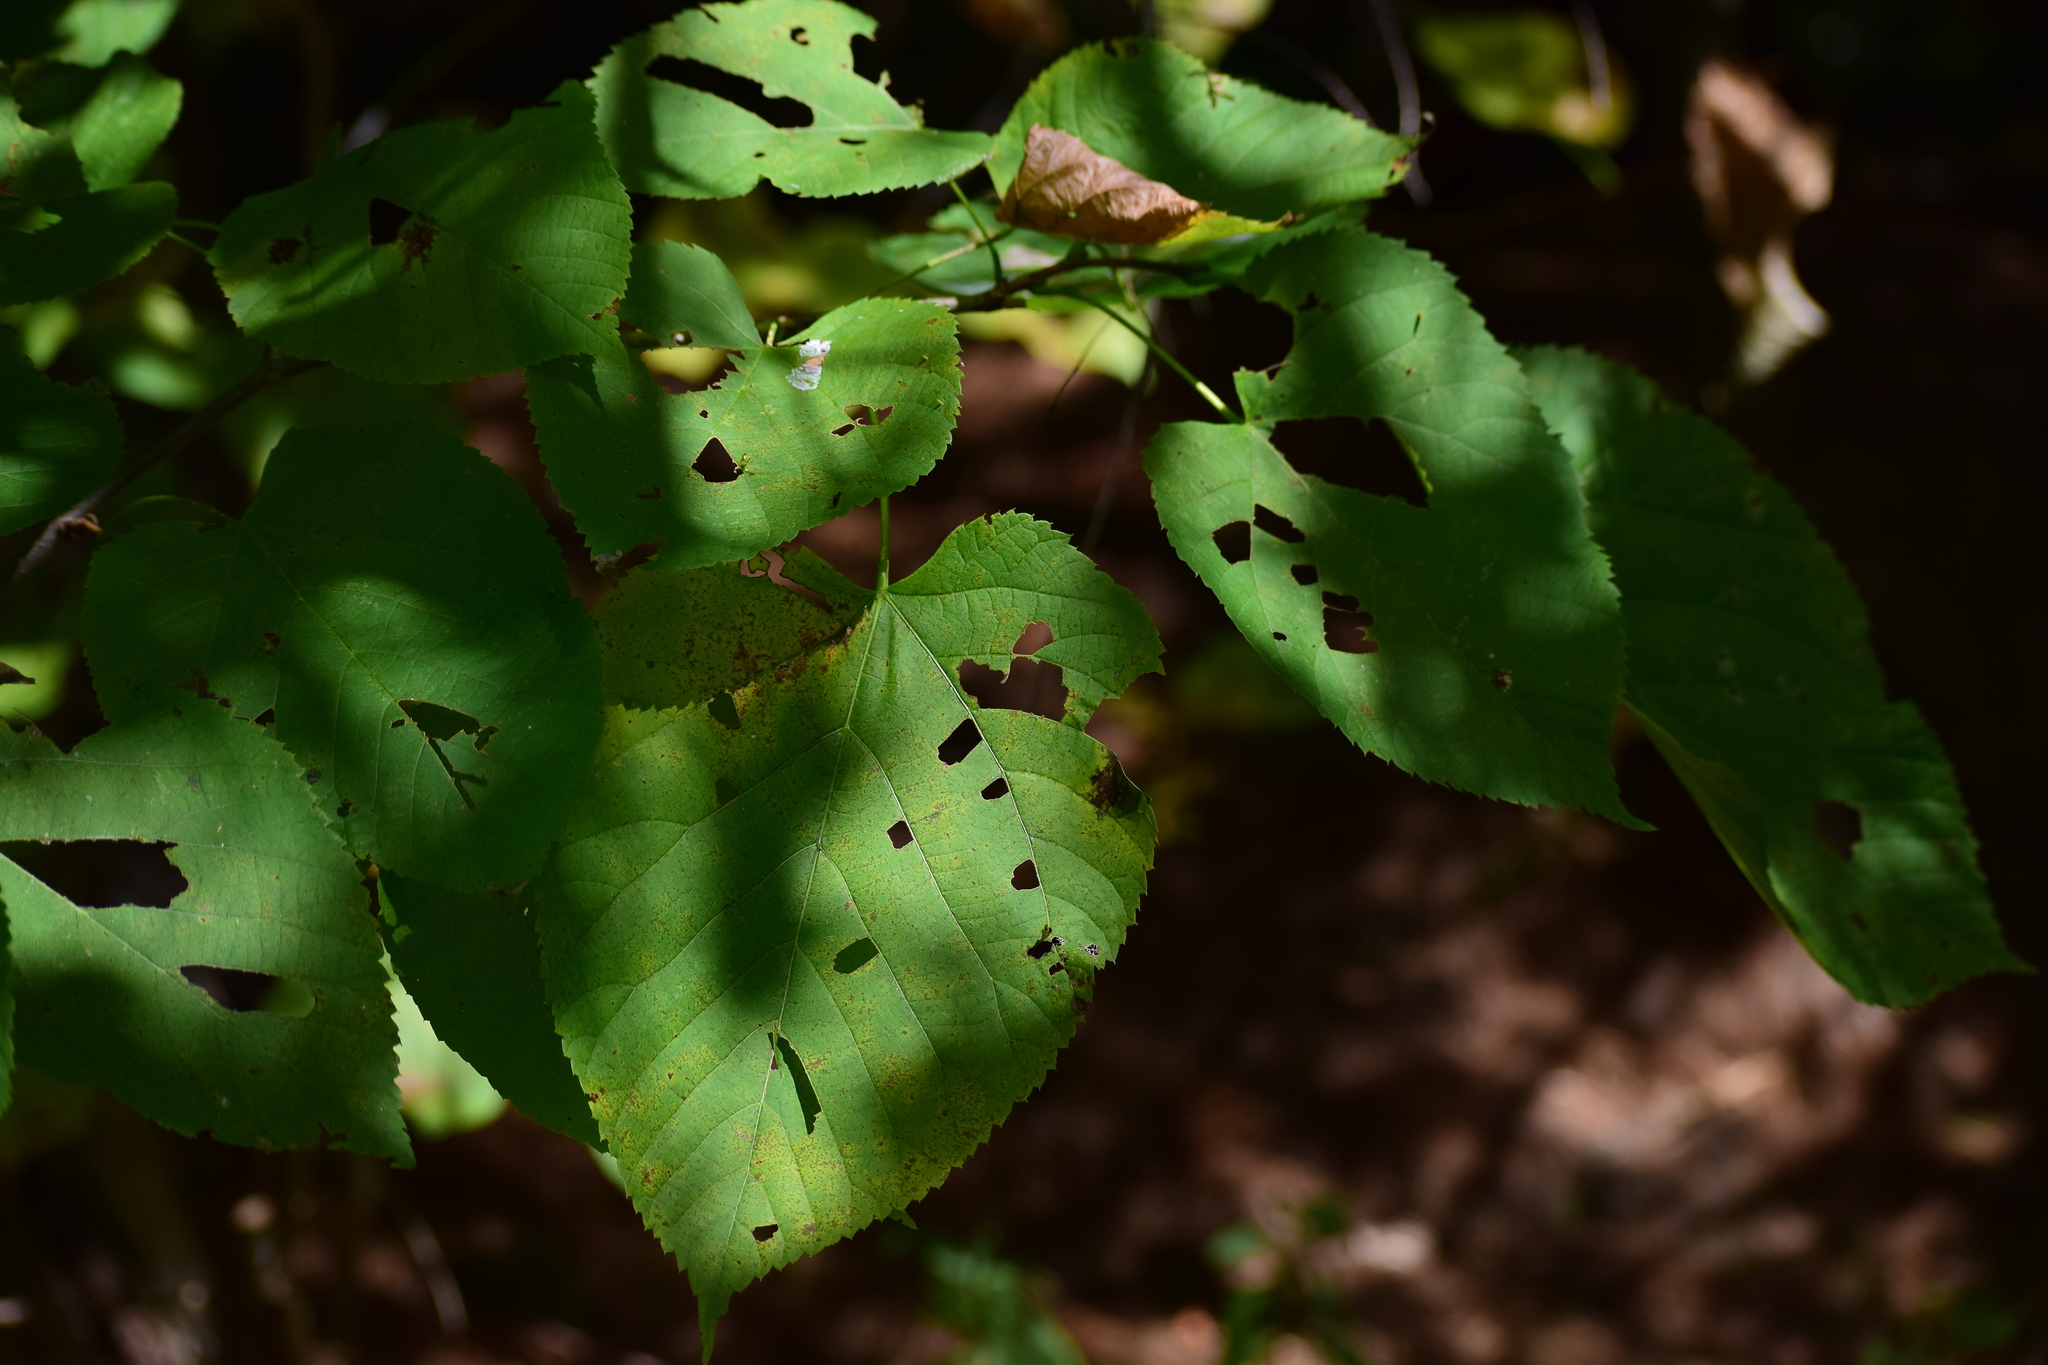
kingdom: Plantae
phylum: Tracheophyta
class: Magnoliopsida
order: Malvales
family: Malvaceae
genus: Tilia
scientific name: Tilia americana
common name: Basswood
